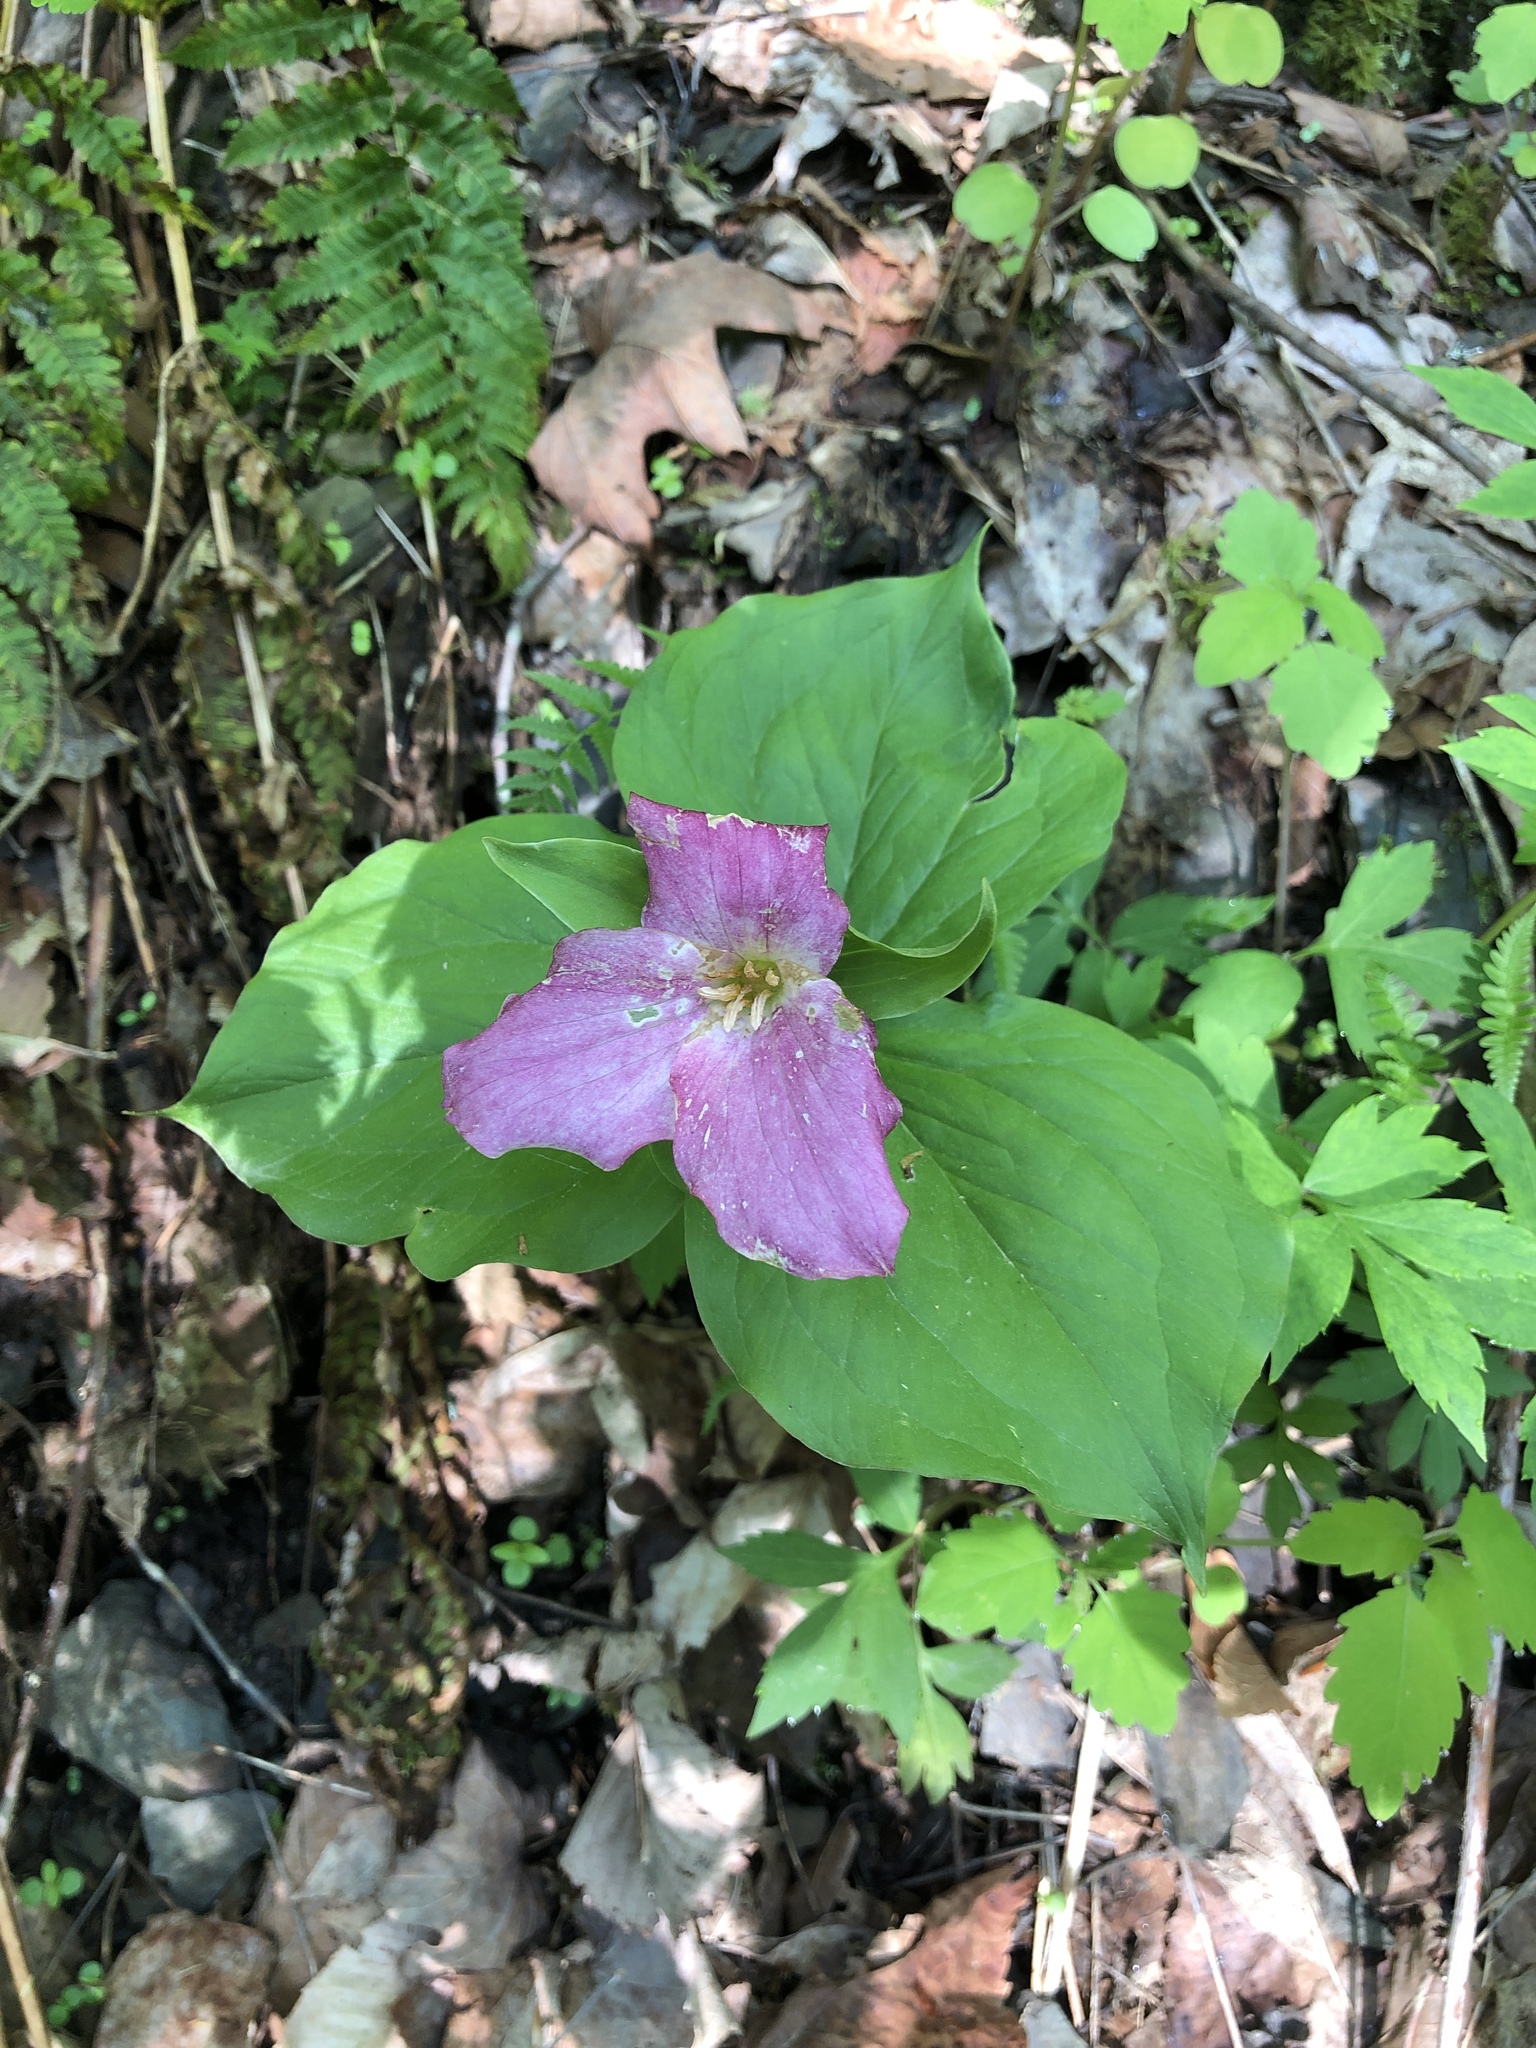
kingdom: Plantae
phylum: Tracheophyta
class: Liliopsida
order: Liliales
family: Melanthiaceae
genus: Trillium
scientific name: Trillium grandiflorum
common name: Great white trillium
